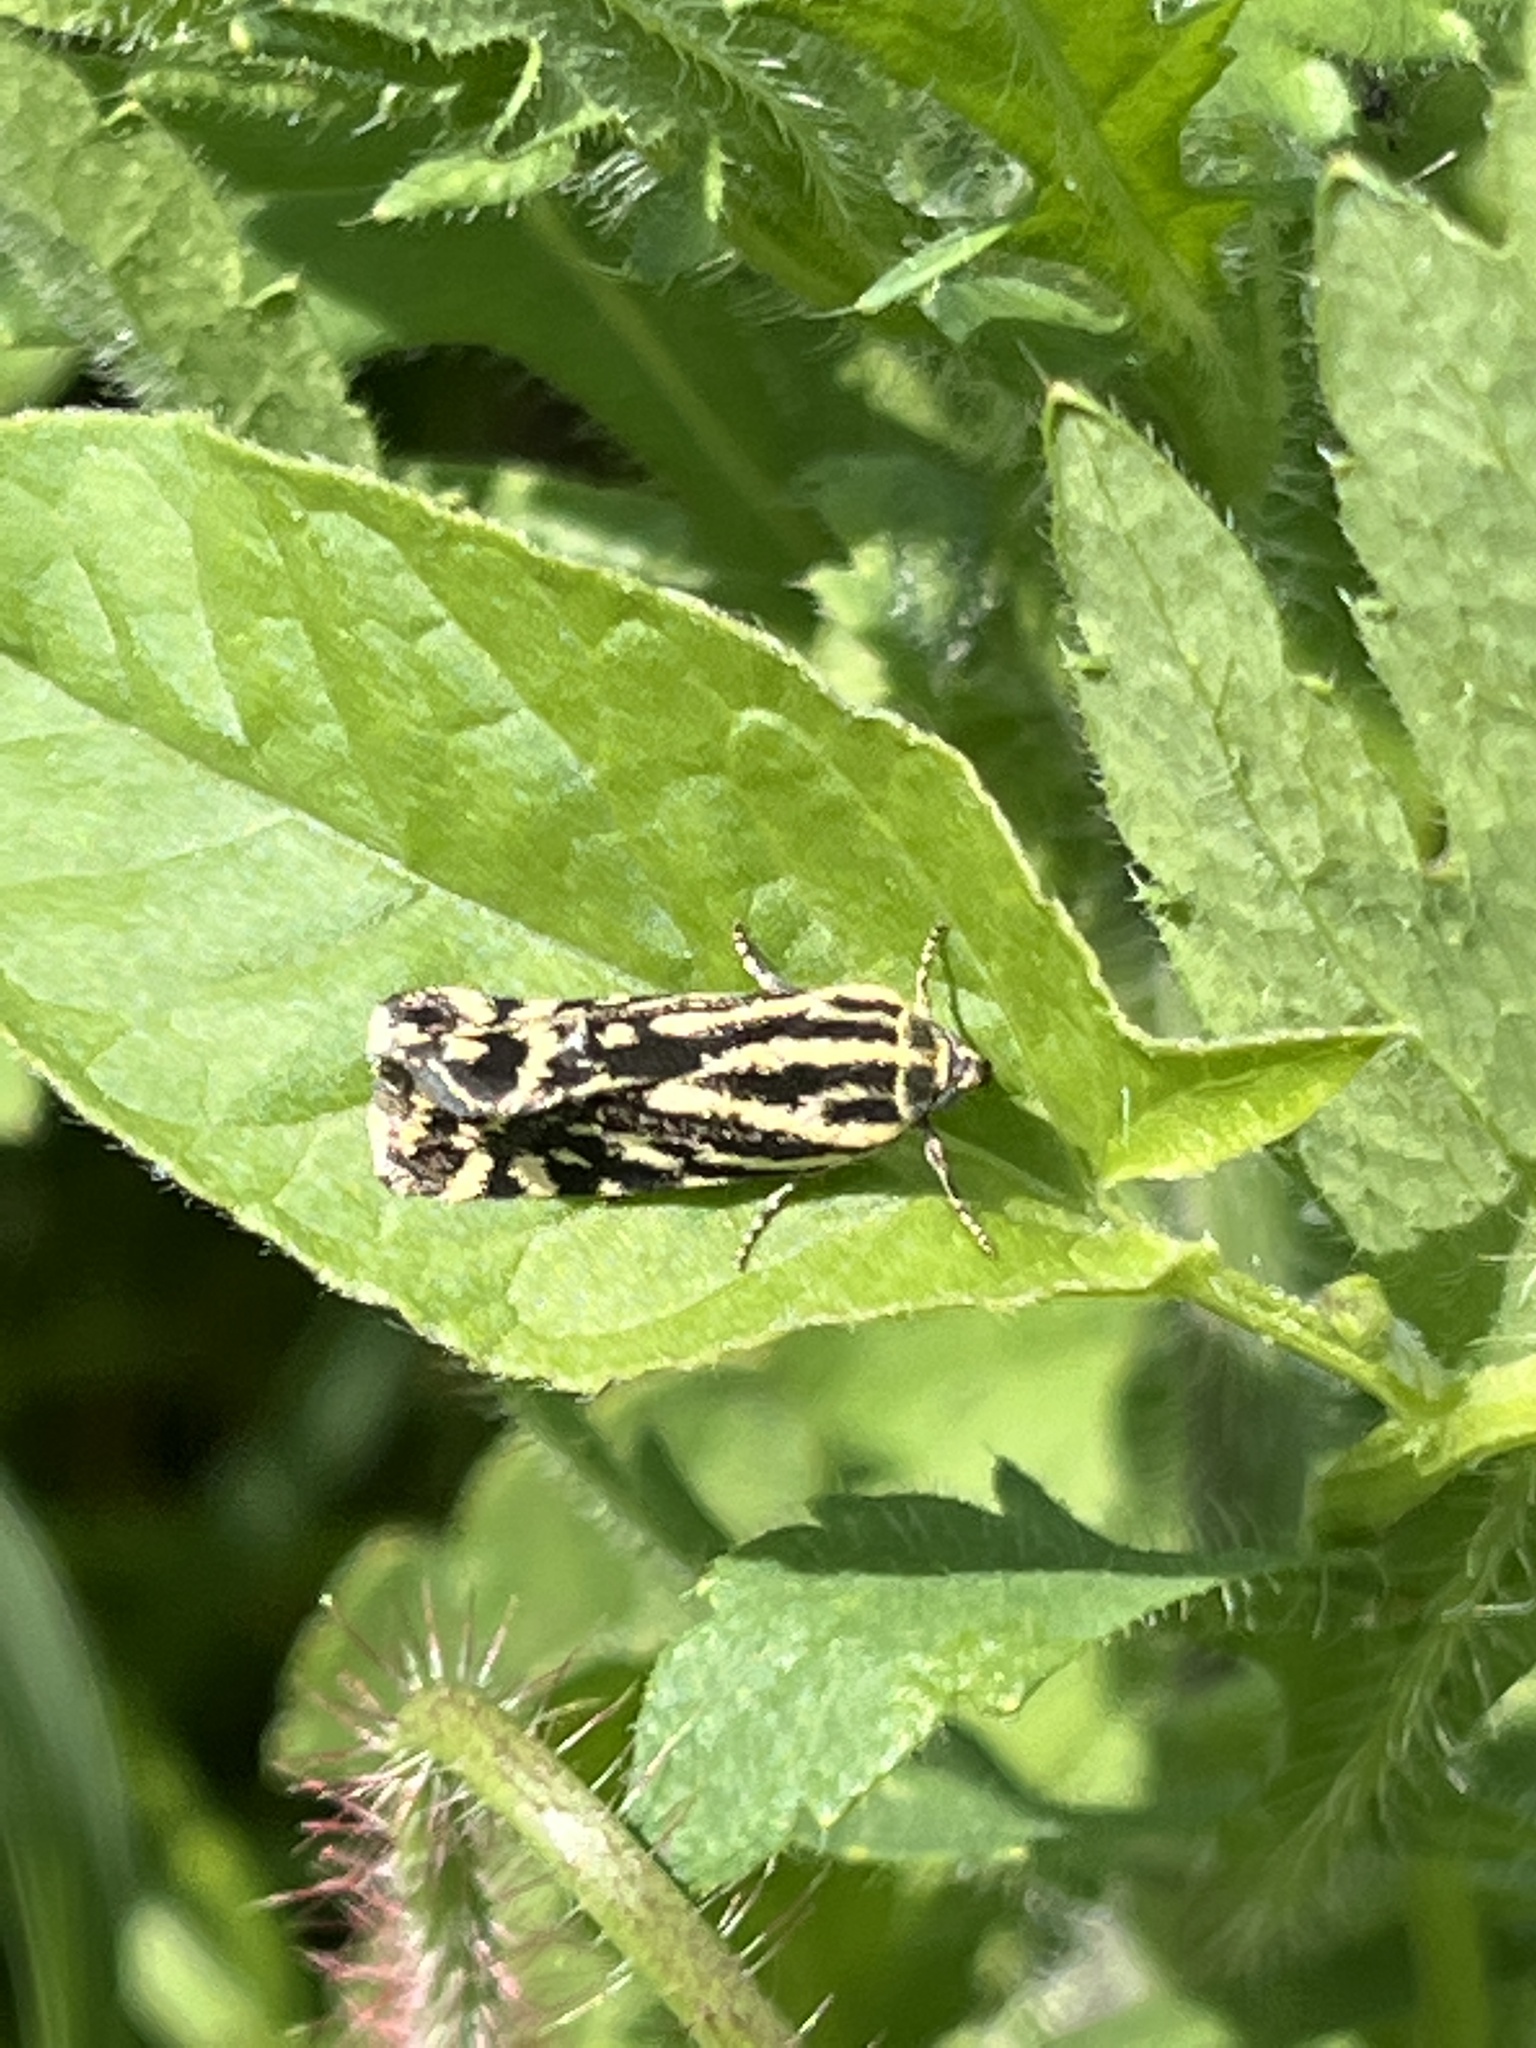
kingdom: Animalia
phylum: Arthropoda
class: Insecta
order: Lepidoptera
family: Noctuidae
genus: Acontia
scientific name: Acontia trabealis
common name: Spotted sulphur
